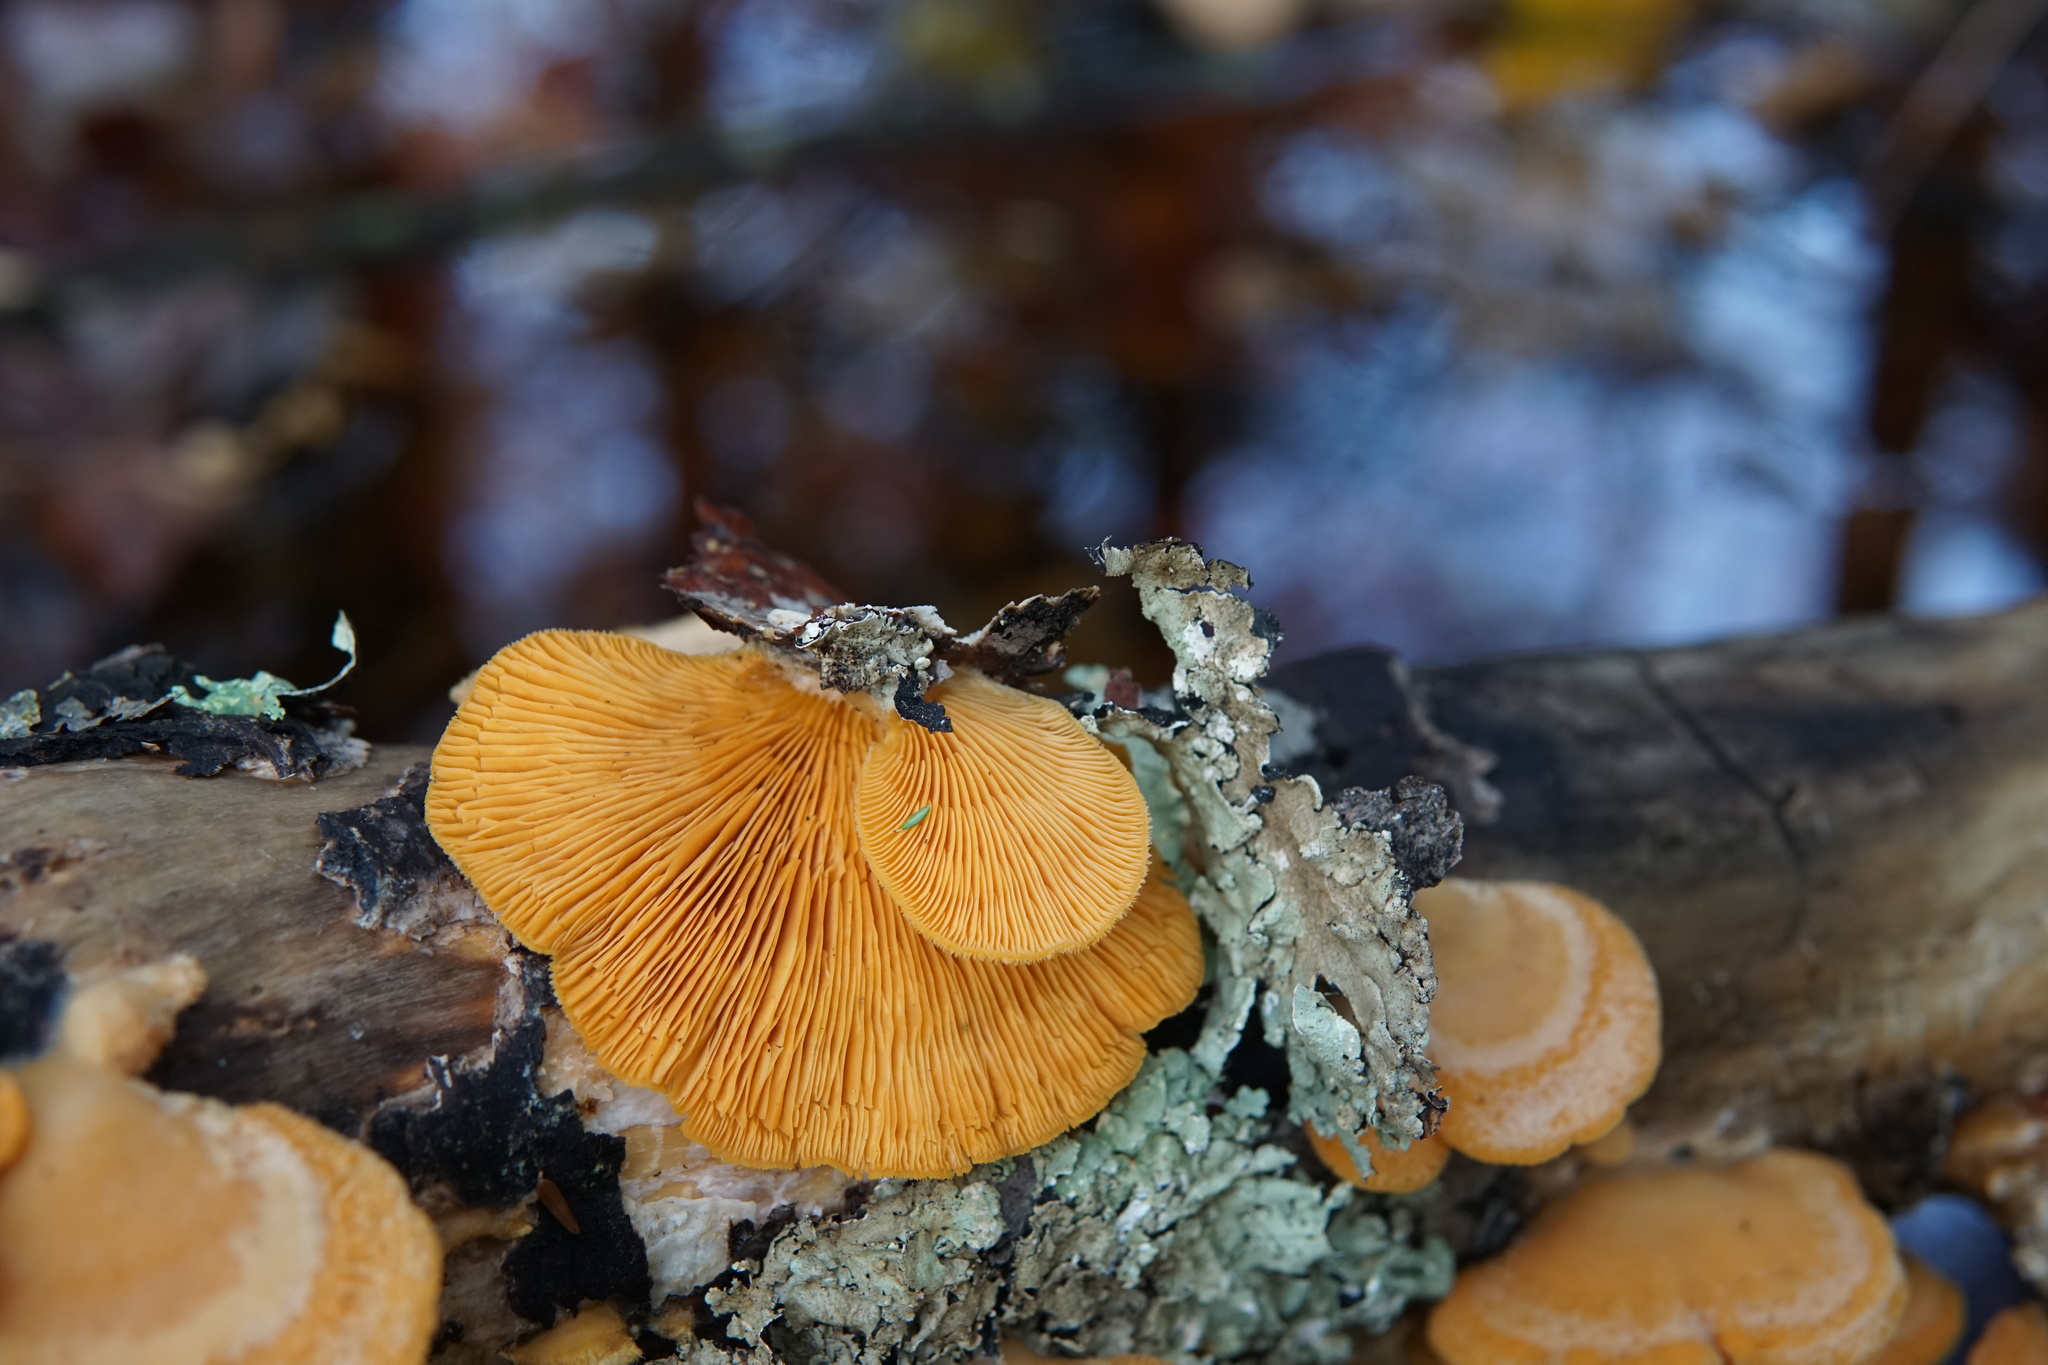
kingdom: Fungi
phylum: Basidiomycota
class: Agaricomycetes
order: Agaricales
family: Phyllotopsidaceae
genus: Phyllotopsis
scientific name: Phyllotopsis nidulans
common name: Orange mock oyster
